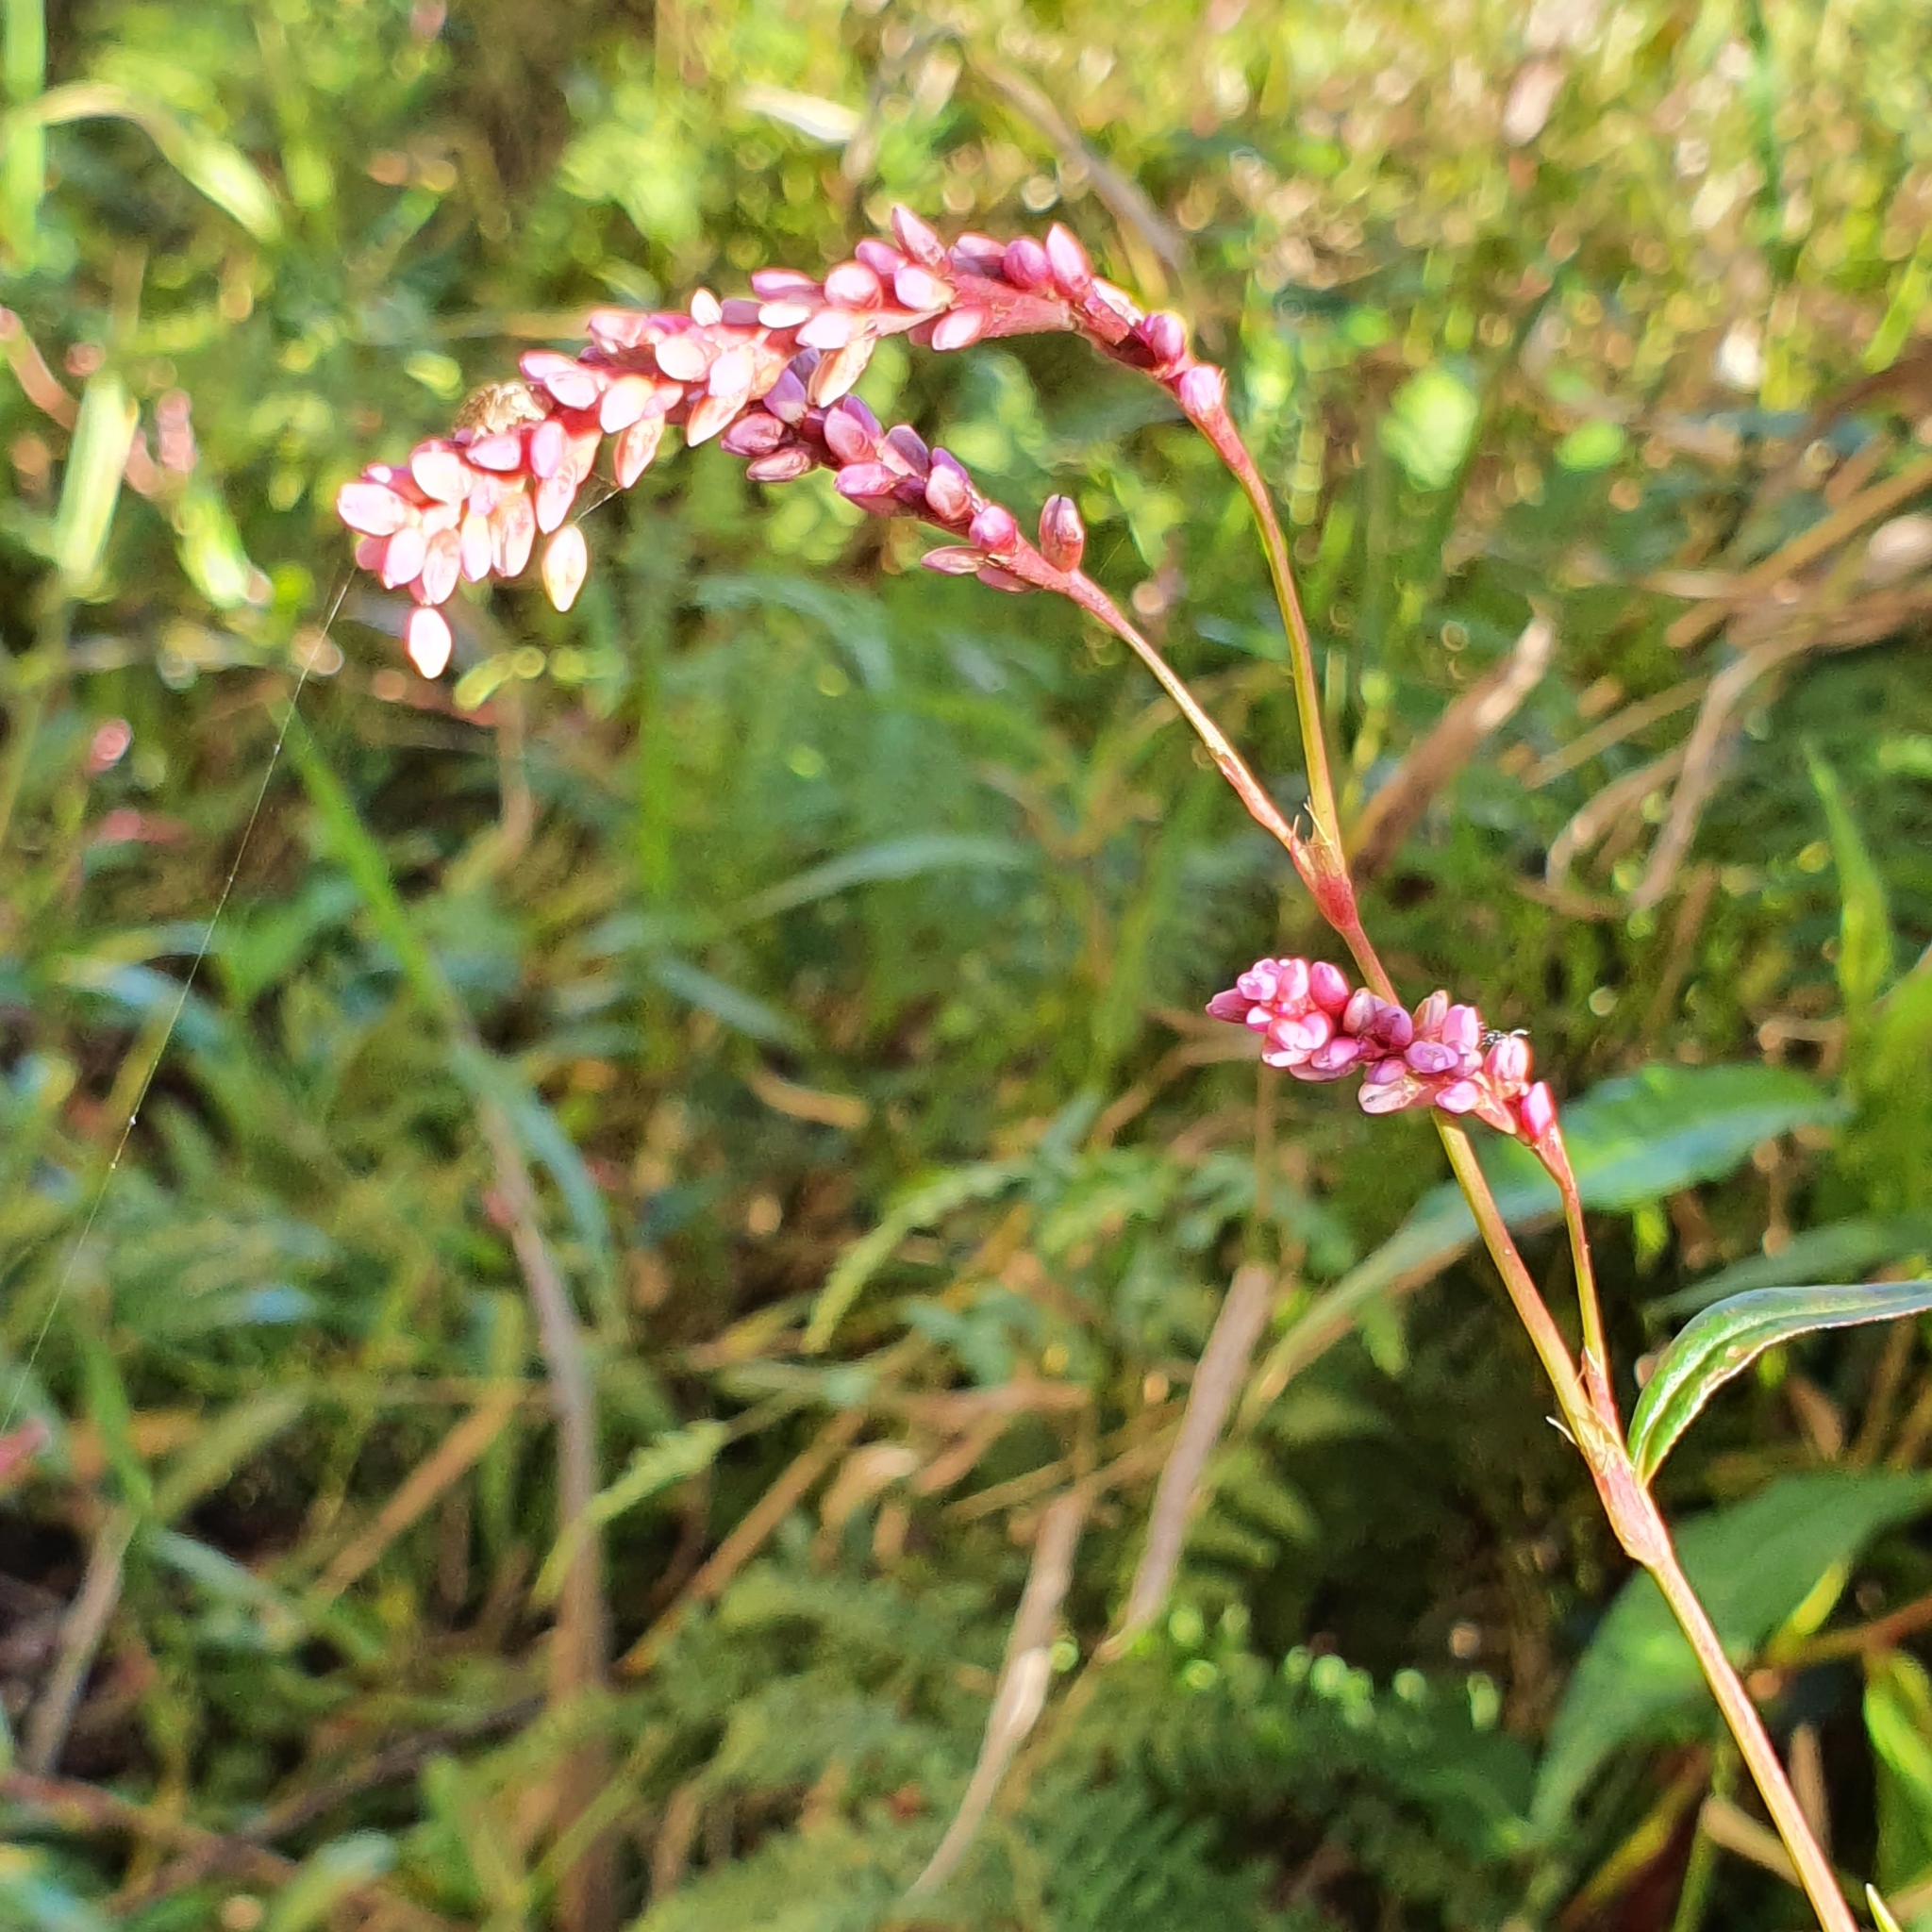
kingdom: Plantae
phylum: Tracheophyta
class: Magnoliopsida
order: Caryophyllales
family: Polygonaceae
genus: Persicaria
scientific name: Persicaria decipiens
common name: Willow-weed
